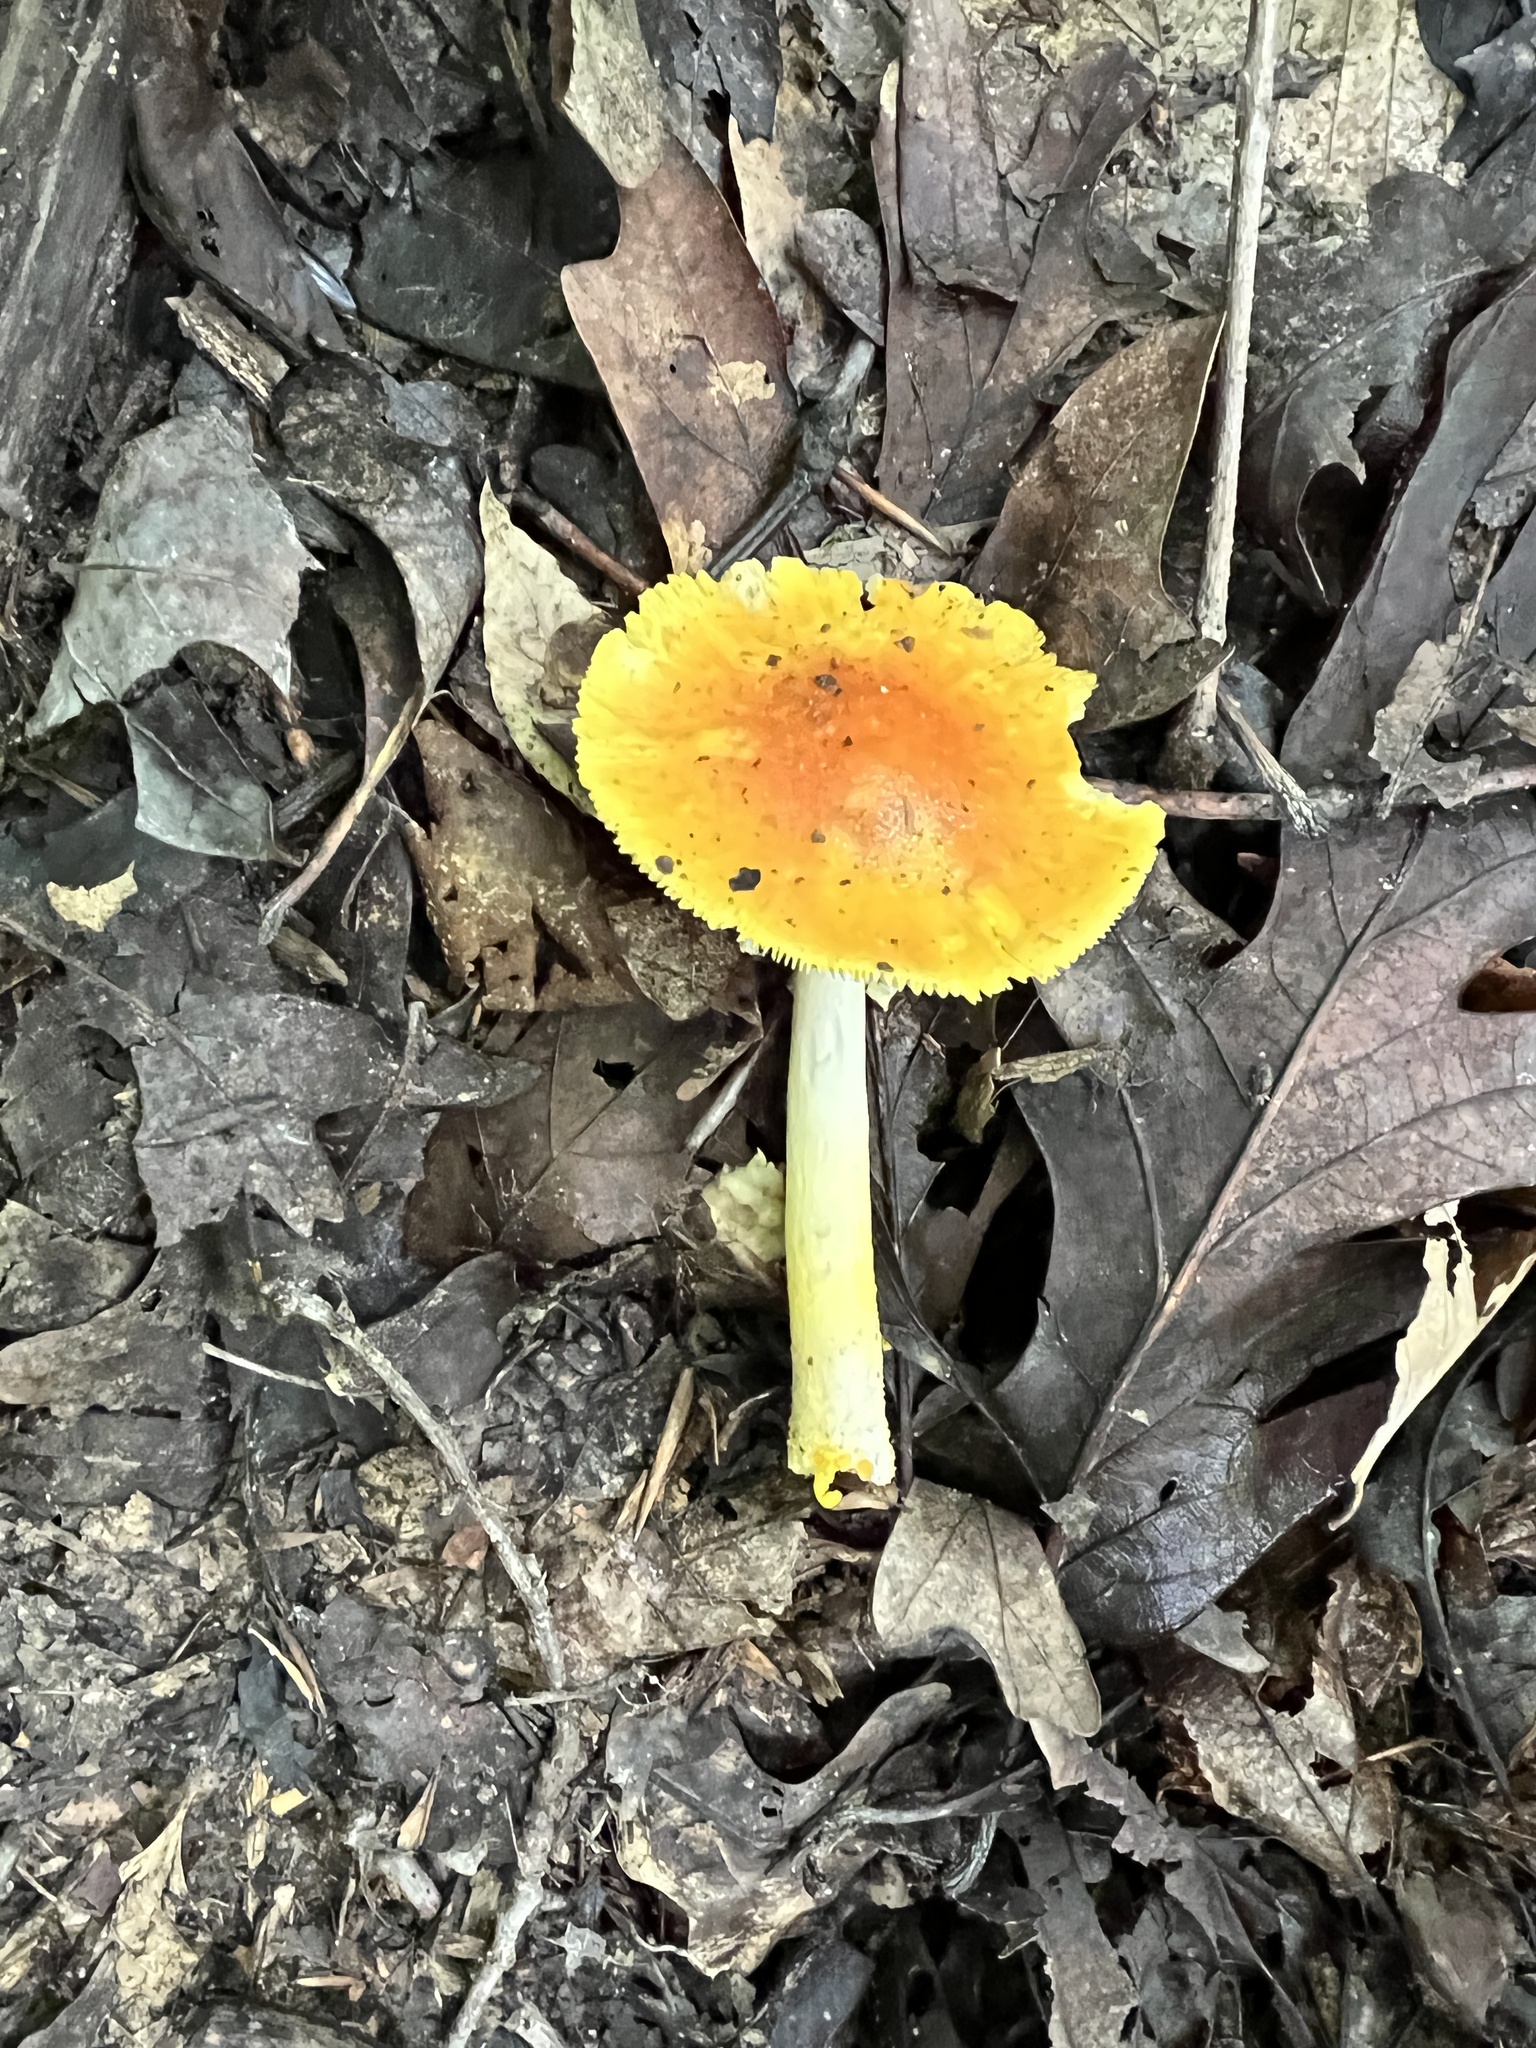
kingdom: Fungi
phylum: Basidiomycota
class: Agaricomycetes
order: Agaricales
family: Amanitaceae
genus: Amanita
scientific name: Amanita flavoconia
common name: Yellow patches
